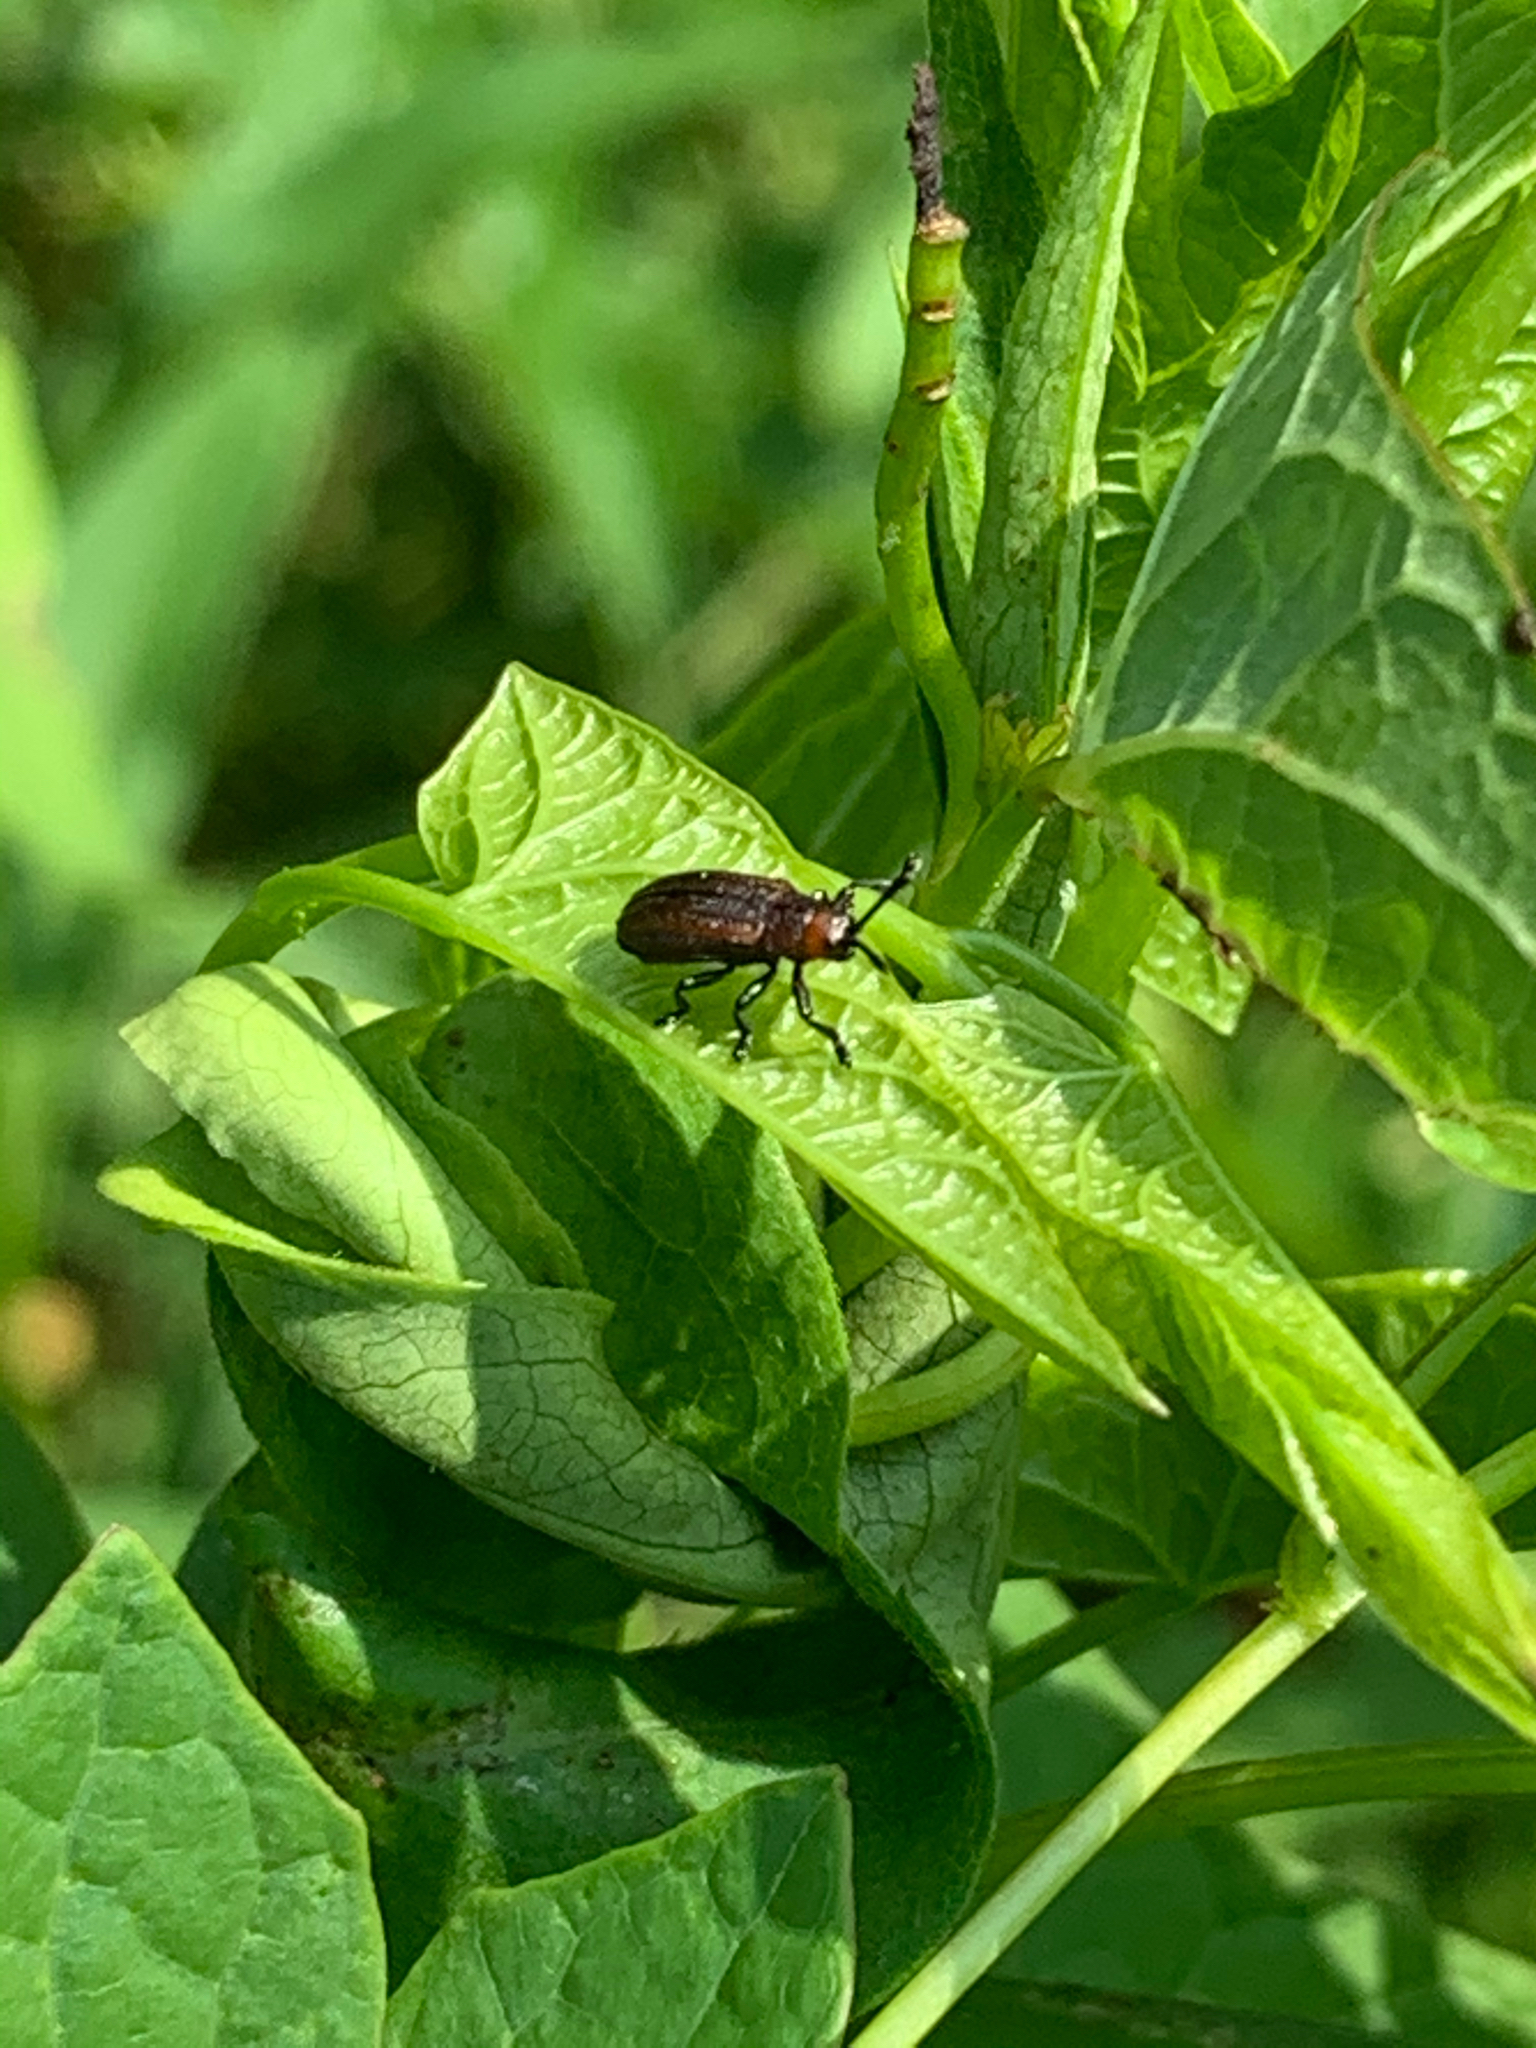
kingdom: Animalia
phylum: Arthropoda
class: Insecta
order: Coleoptera
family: Chrysomelidae
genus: Microrhopala
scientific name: Microrhopala vittata
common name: Goldenrod leaf miner beetle
